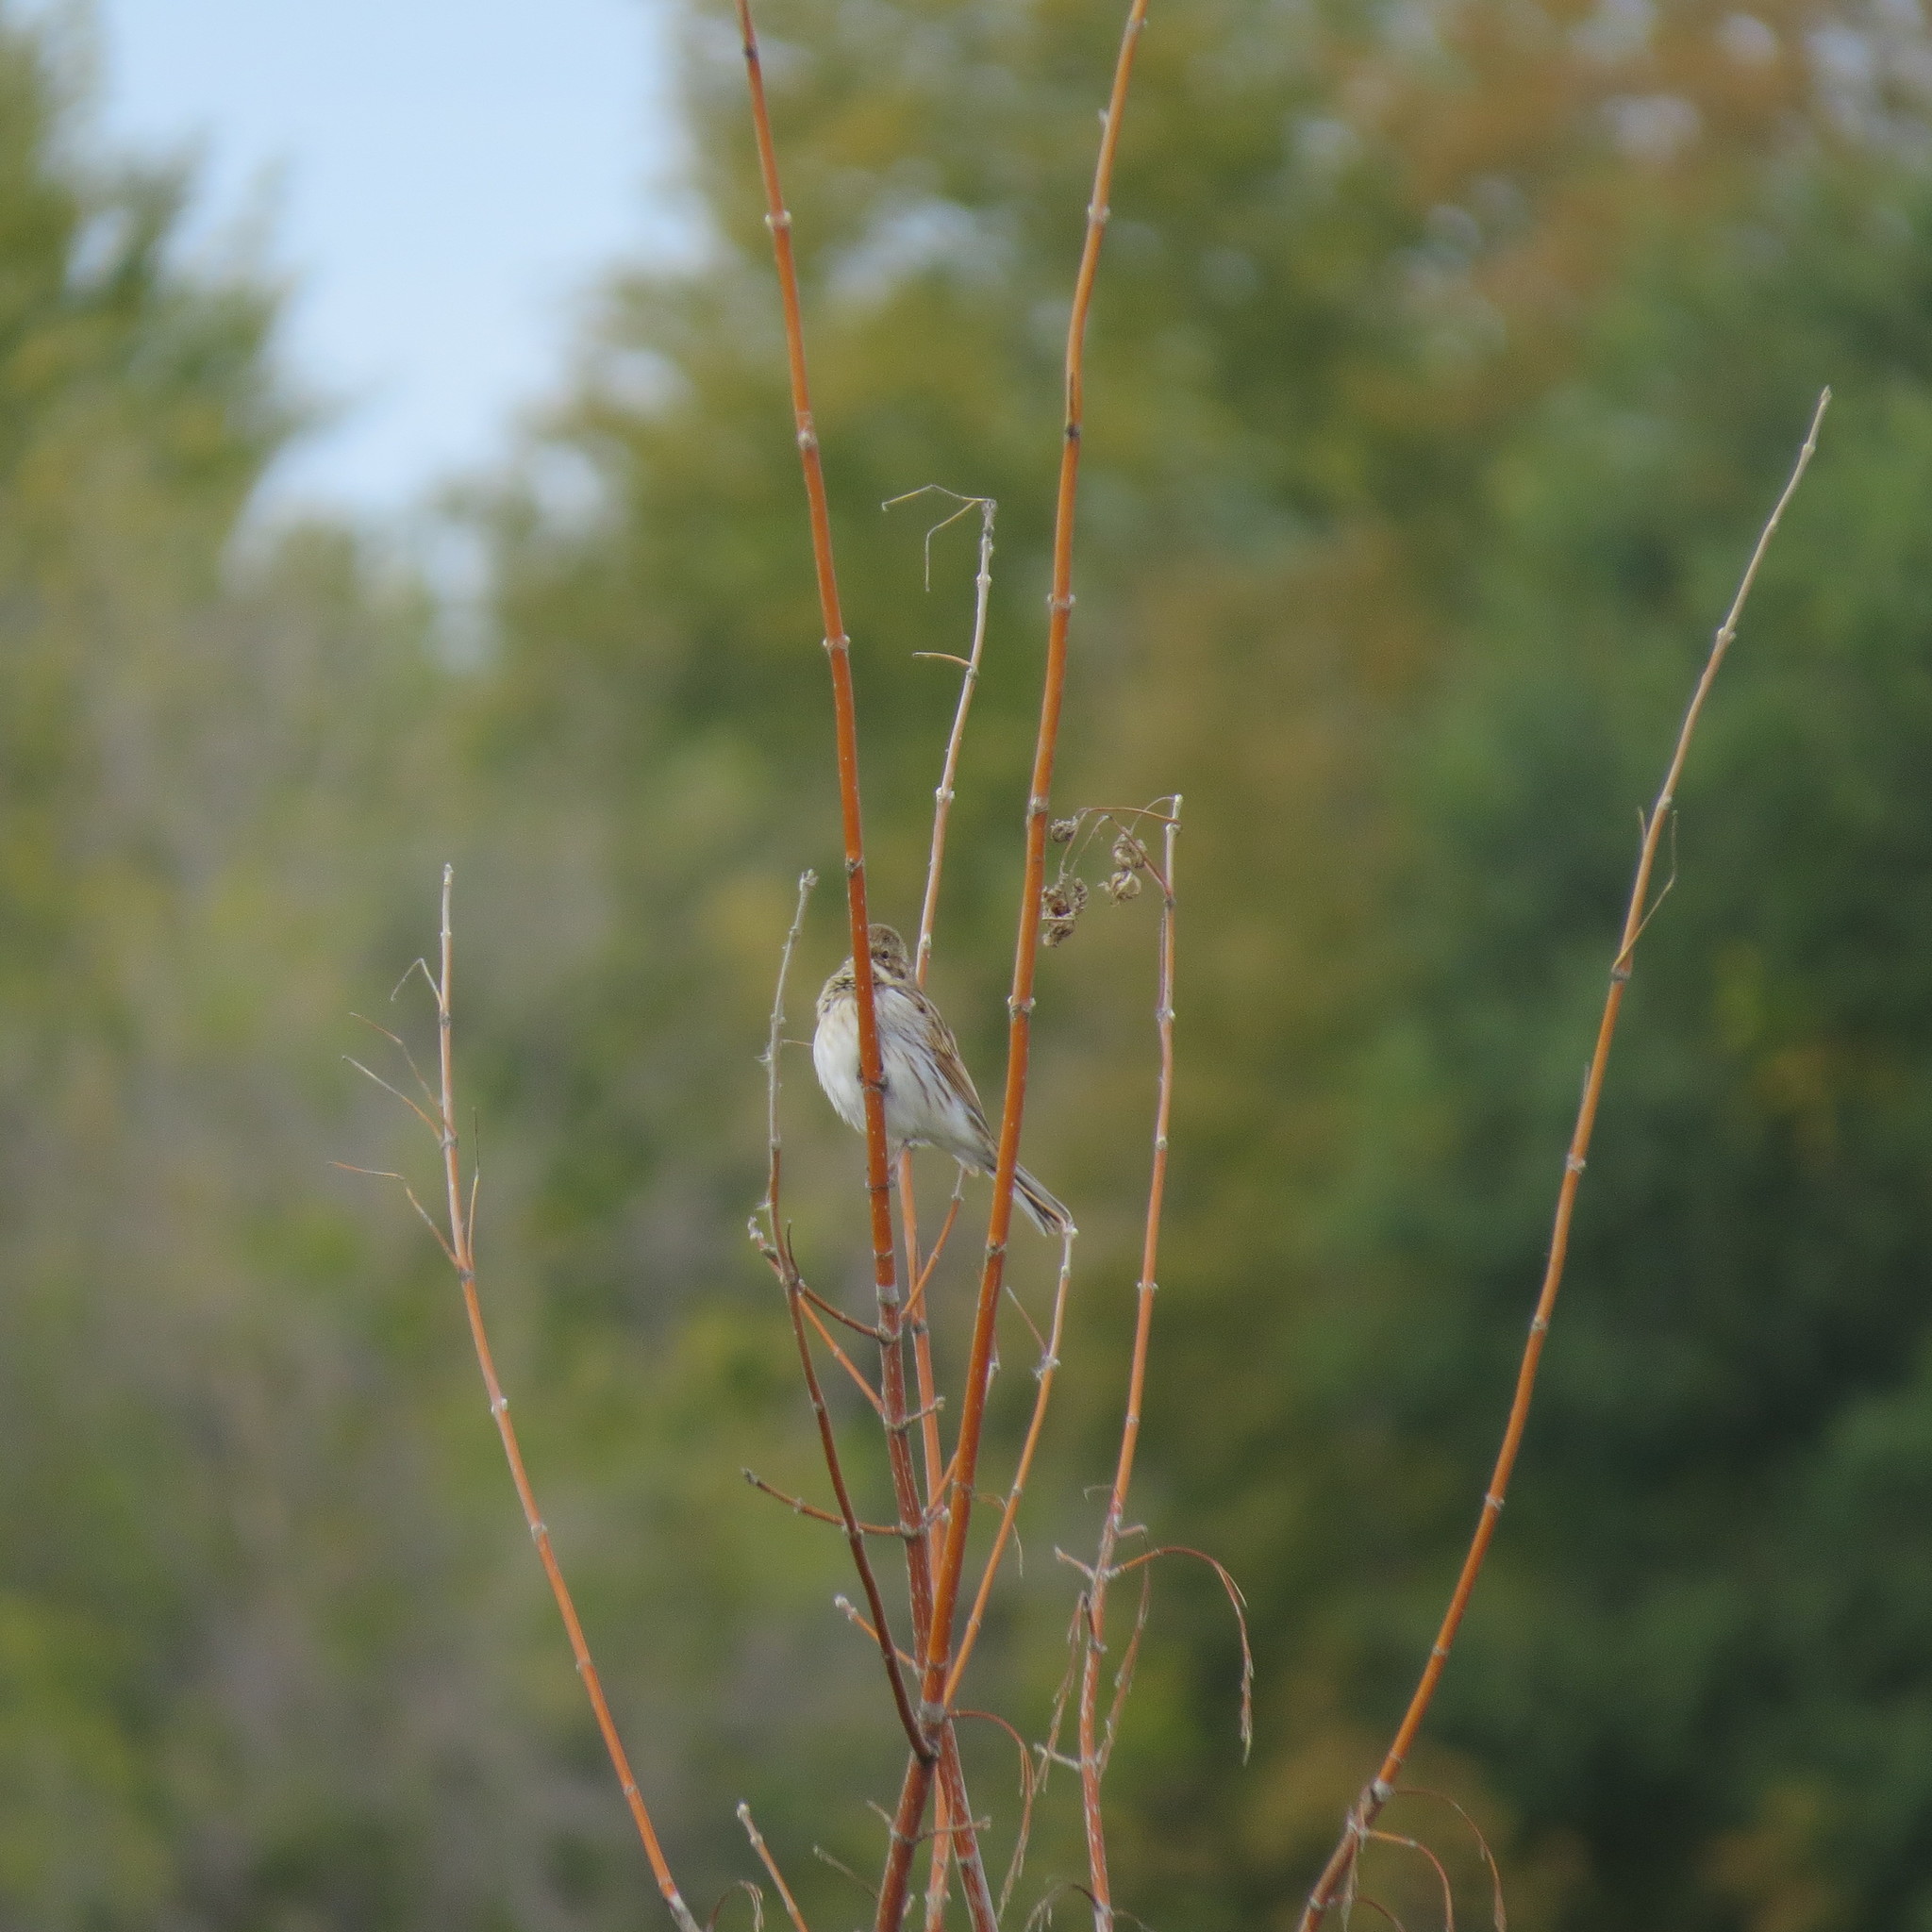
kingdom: Animalia
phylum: Chordata
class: Aves
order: Passeriformes
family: Emberizidae
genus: Emberiza
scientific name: Emberiza schoeniclus
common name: Reed bunting
